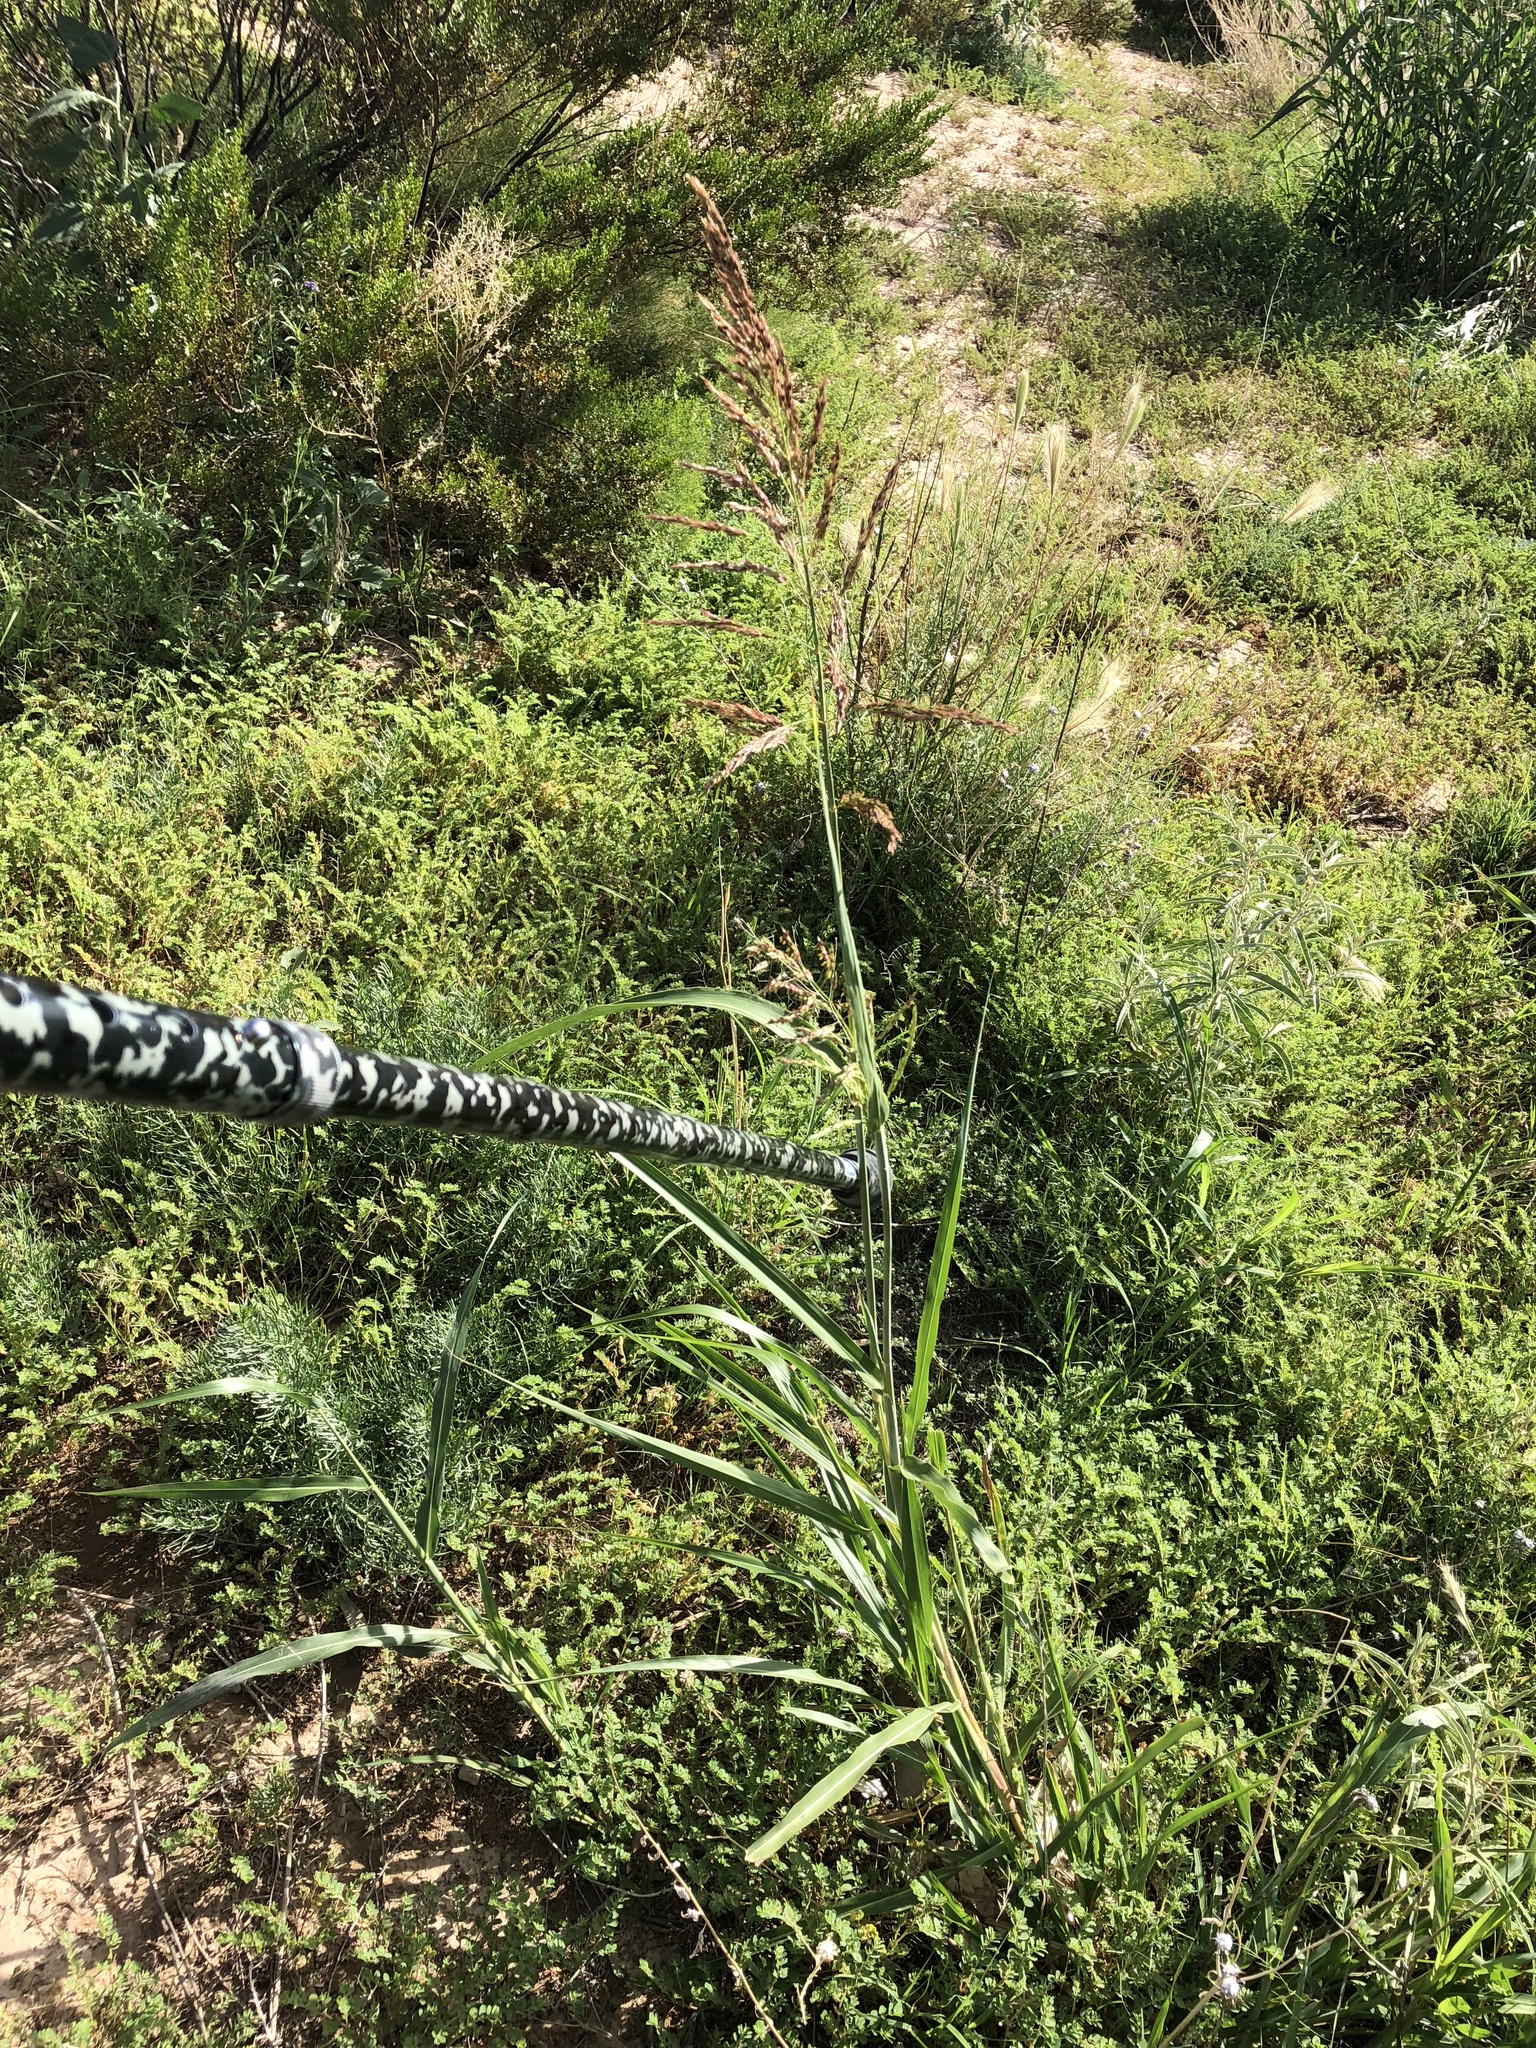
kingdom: Plantae
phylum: Tracheophyta
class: Liliopsida
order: Poales
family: Poaceae
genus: Sorghum
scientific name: Sorghum halepense
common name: Johnson-grass
